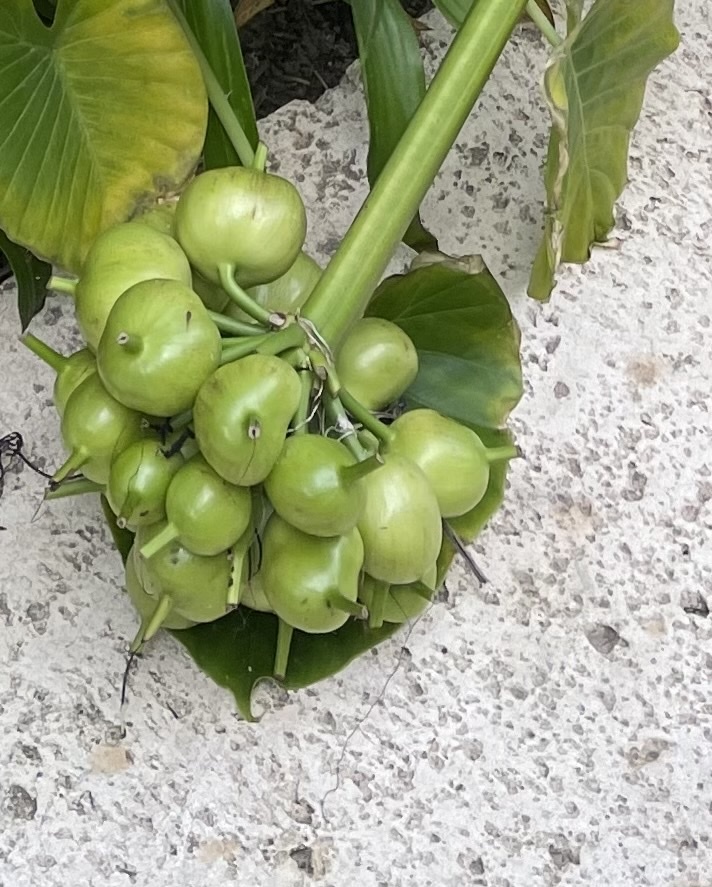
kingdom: Plantae
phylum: Tracheophyta
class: Liliopsida
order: Asparagales
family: Amaryllidaceae
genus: Crinum
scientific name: Crinum asiaticum
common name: Poisonbulb
